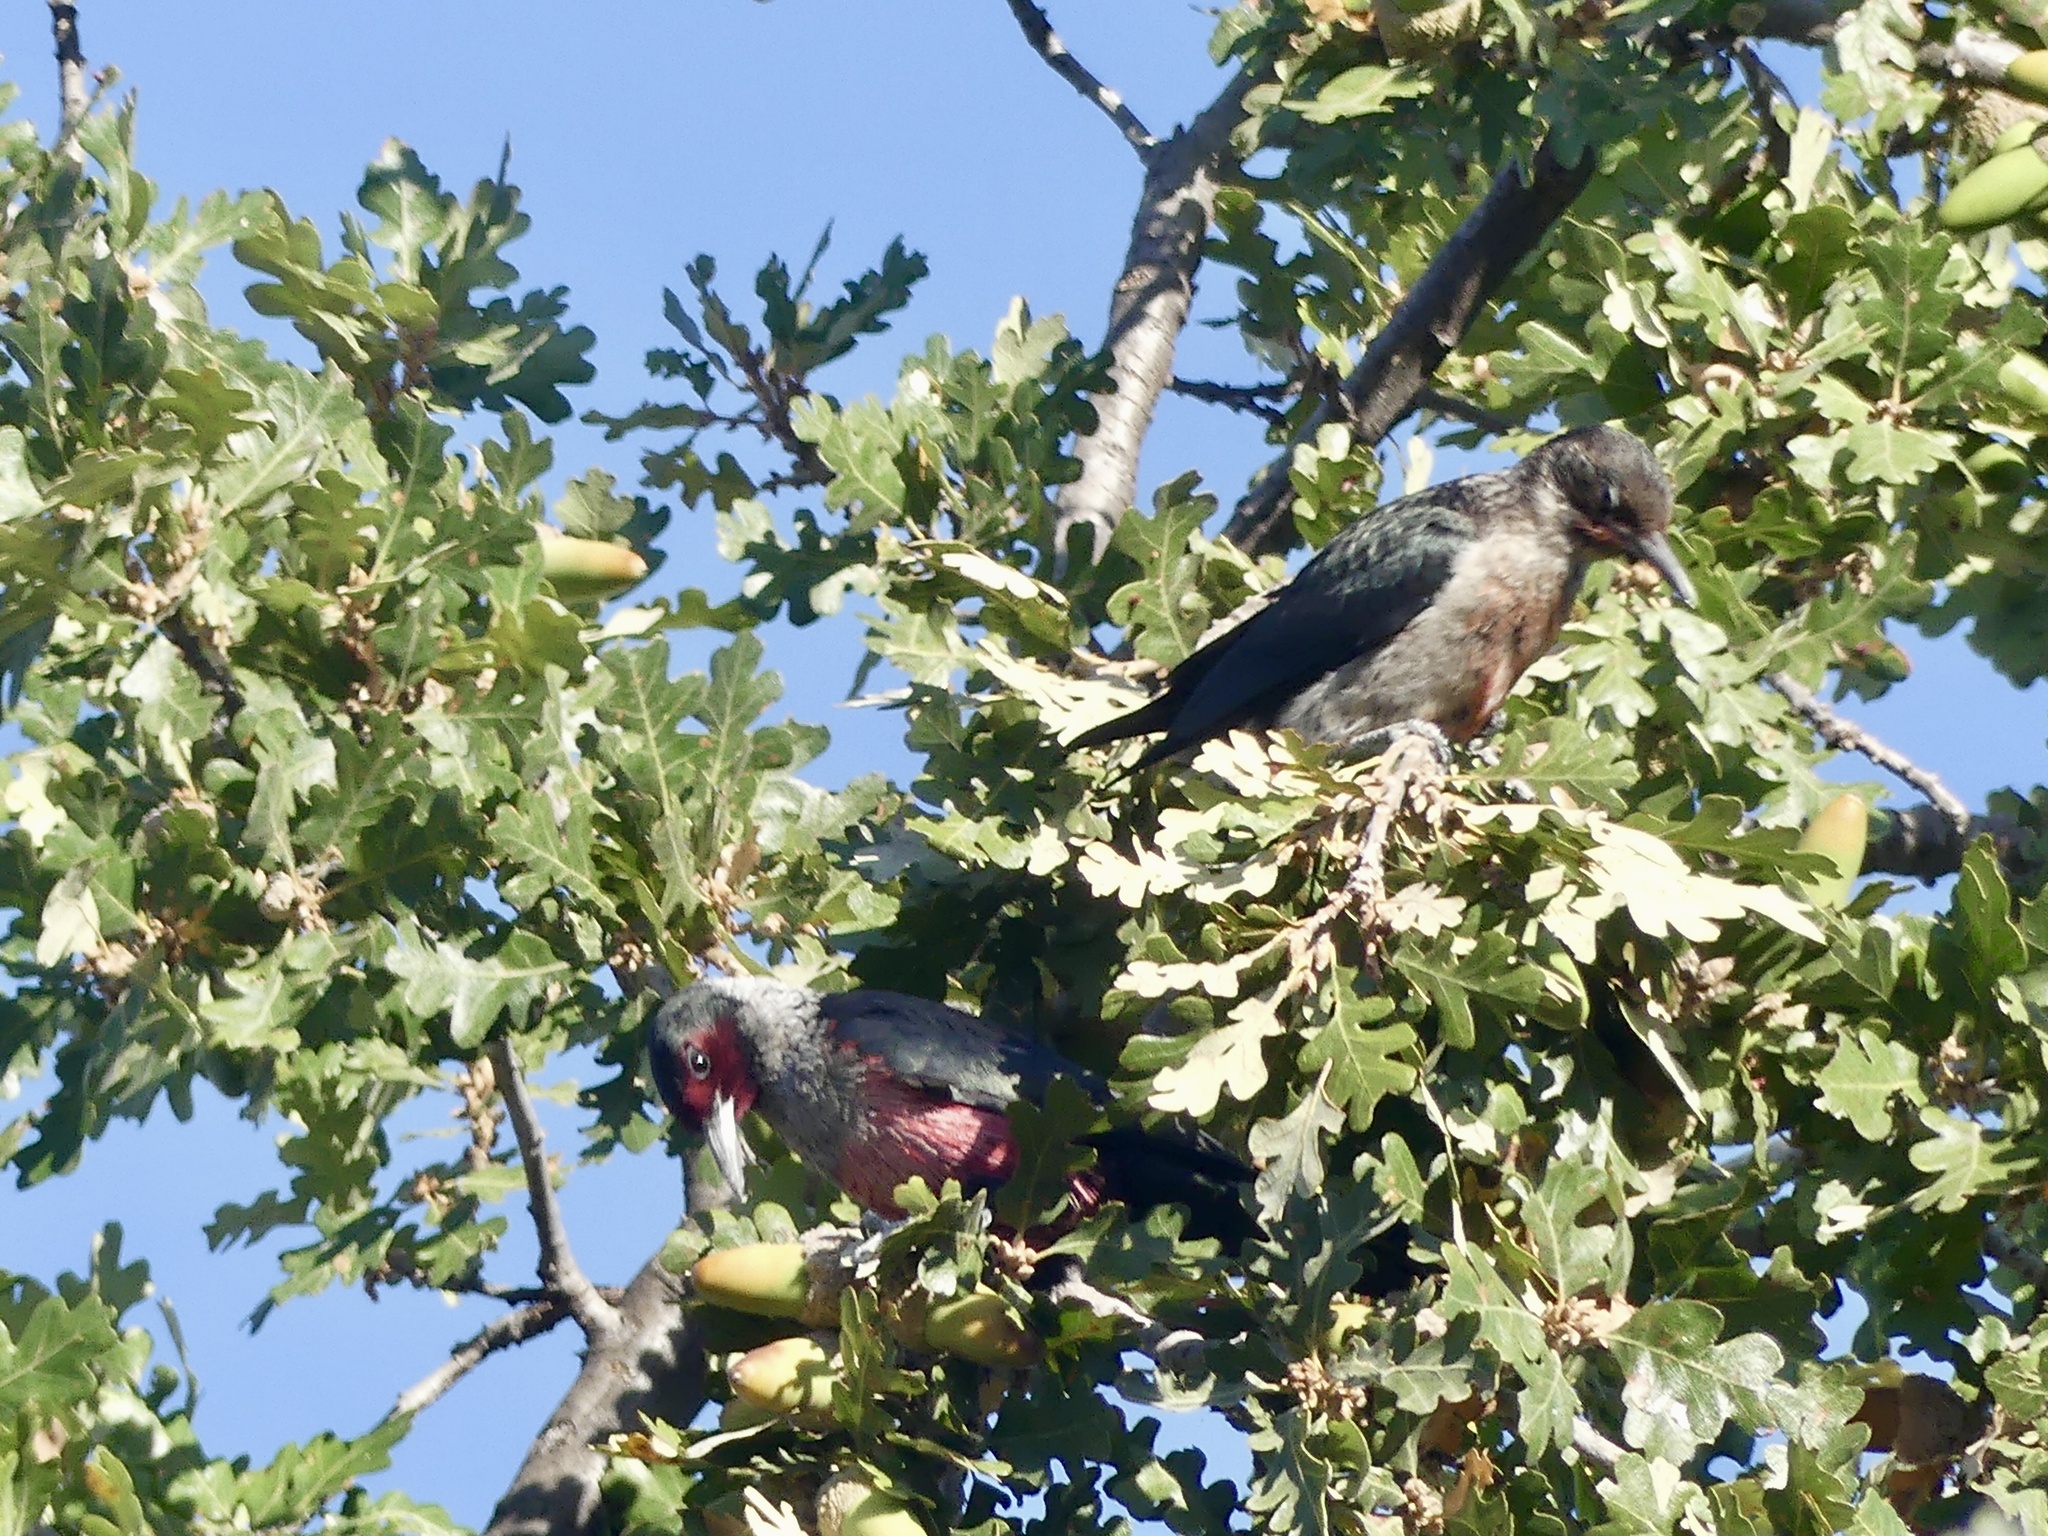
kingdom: Animalia
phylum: Chordata
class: Aves
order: Piciformes
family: Picidae
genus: Melanerpes
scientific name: Melanerpes lewis
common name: Lewis's woodpecker
